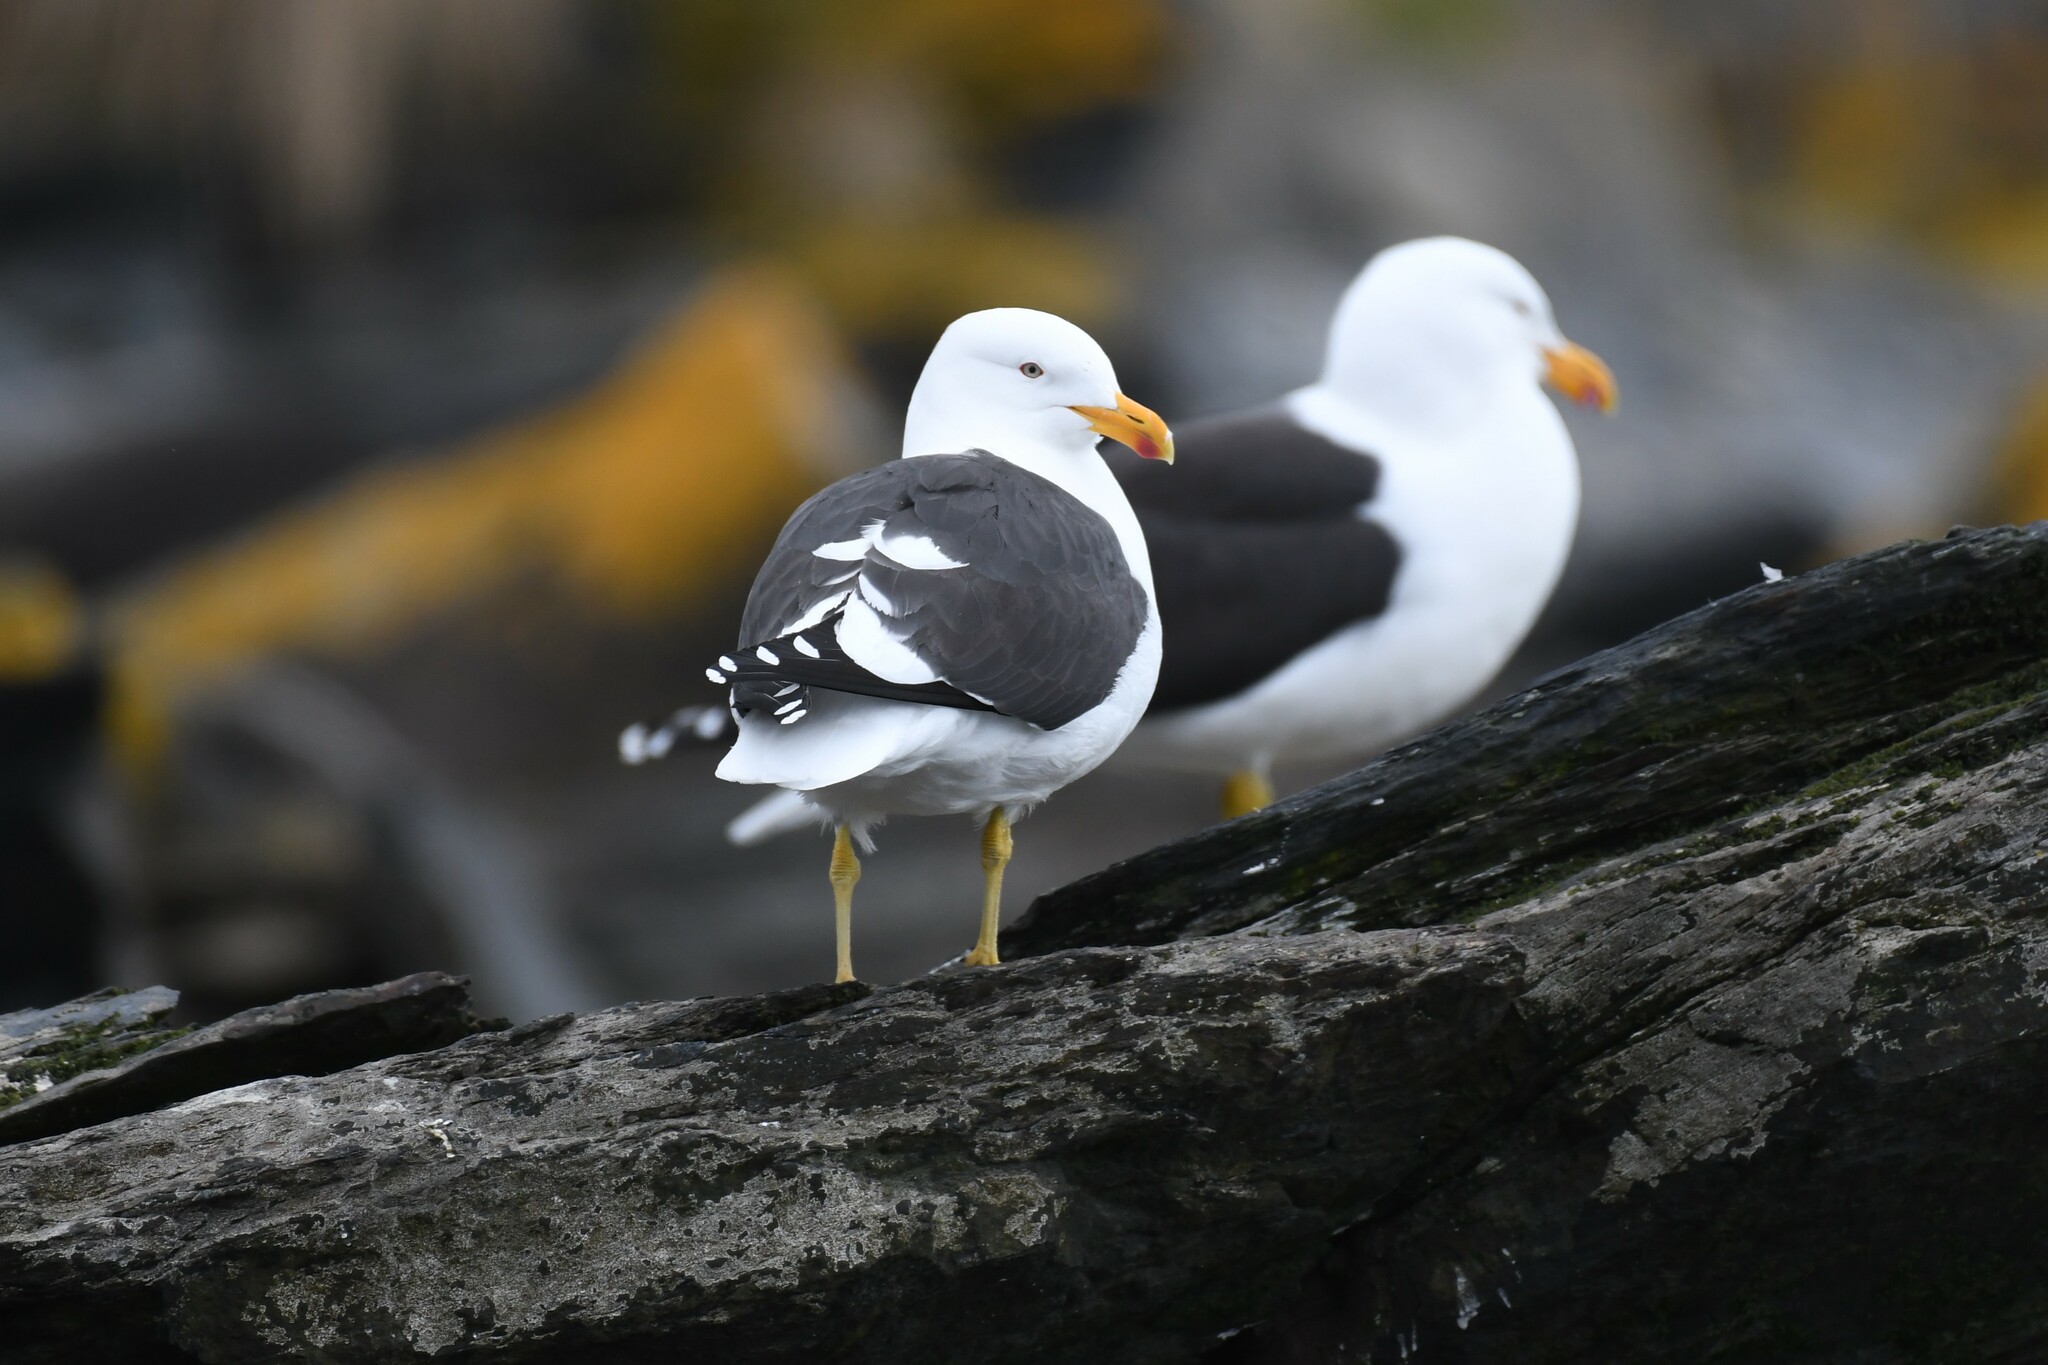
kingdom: Animalia
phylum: Chordata
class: Aves
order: Charadriiformes
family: Laridae
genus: Larus
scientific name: Larus dominicanus
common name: Kelp gull
